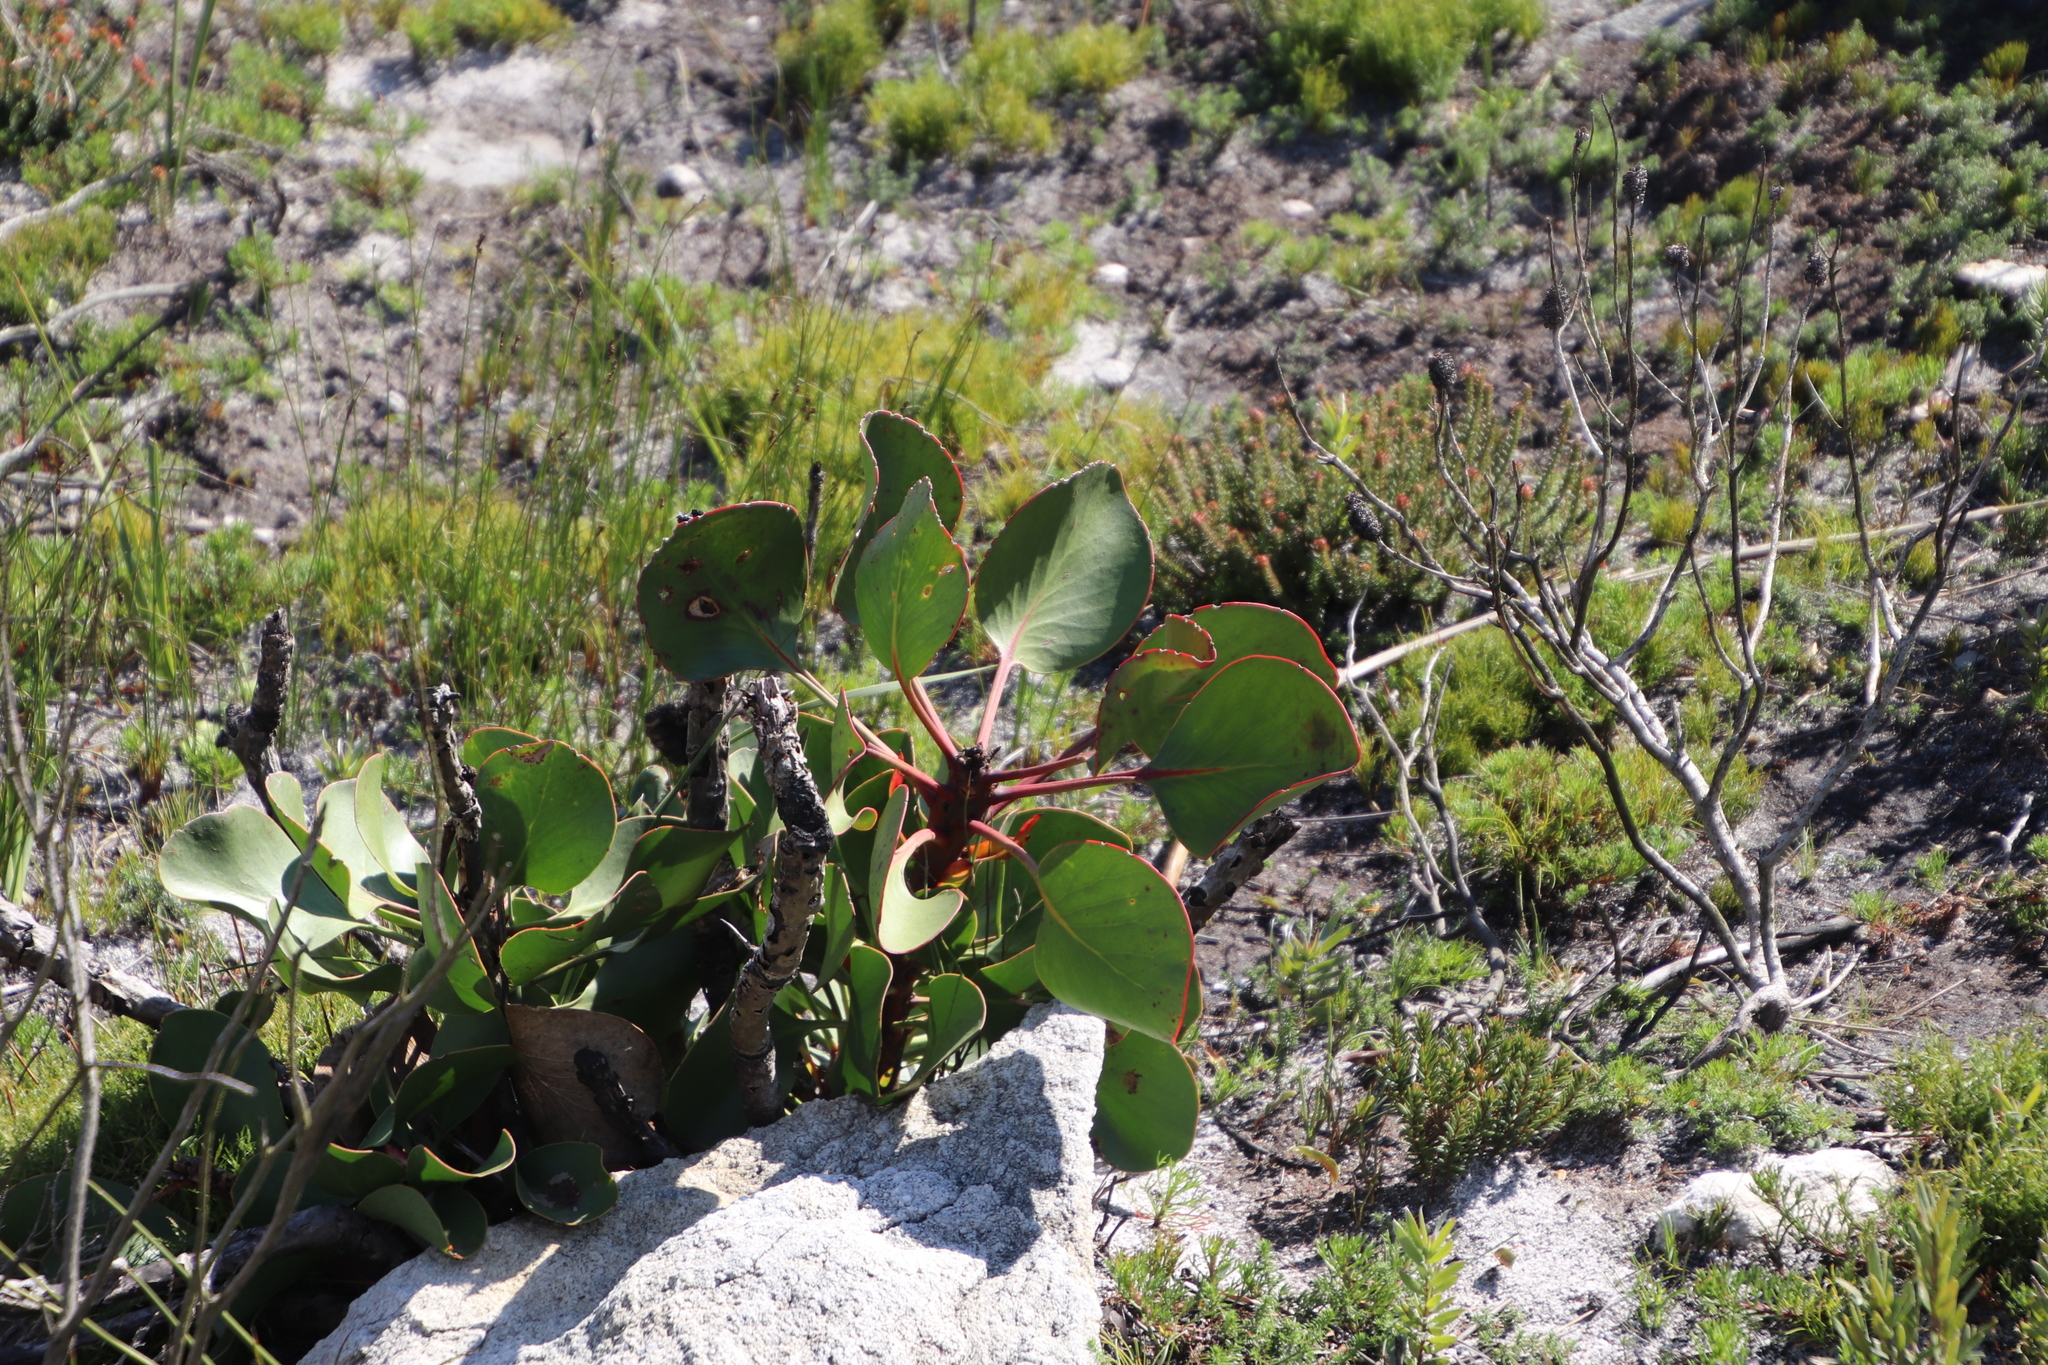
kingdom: Plantae
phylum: Tracheophyta
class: Magnoliopsida
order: Proteales
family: Proteaceae
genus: Protea
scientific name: Protea cynaroides
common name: King protea
